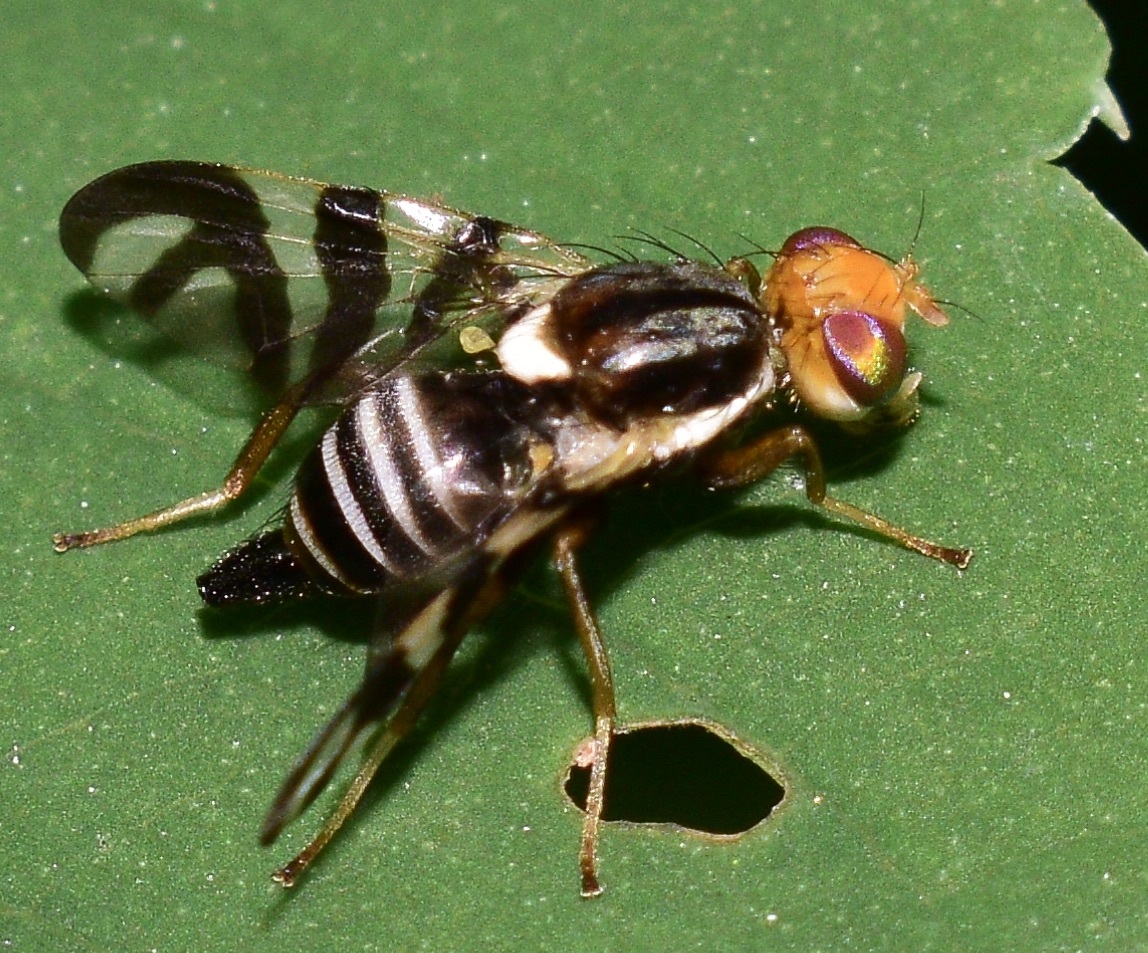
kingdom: Animalia
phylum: Arthropoda
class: Insecta
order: Diptera
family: Tephritidae
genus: Rhagoletis
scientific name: Rhagoletis striatella
